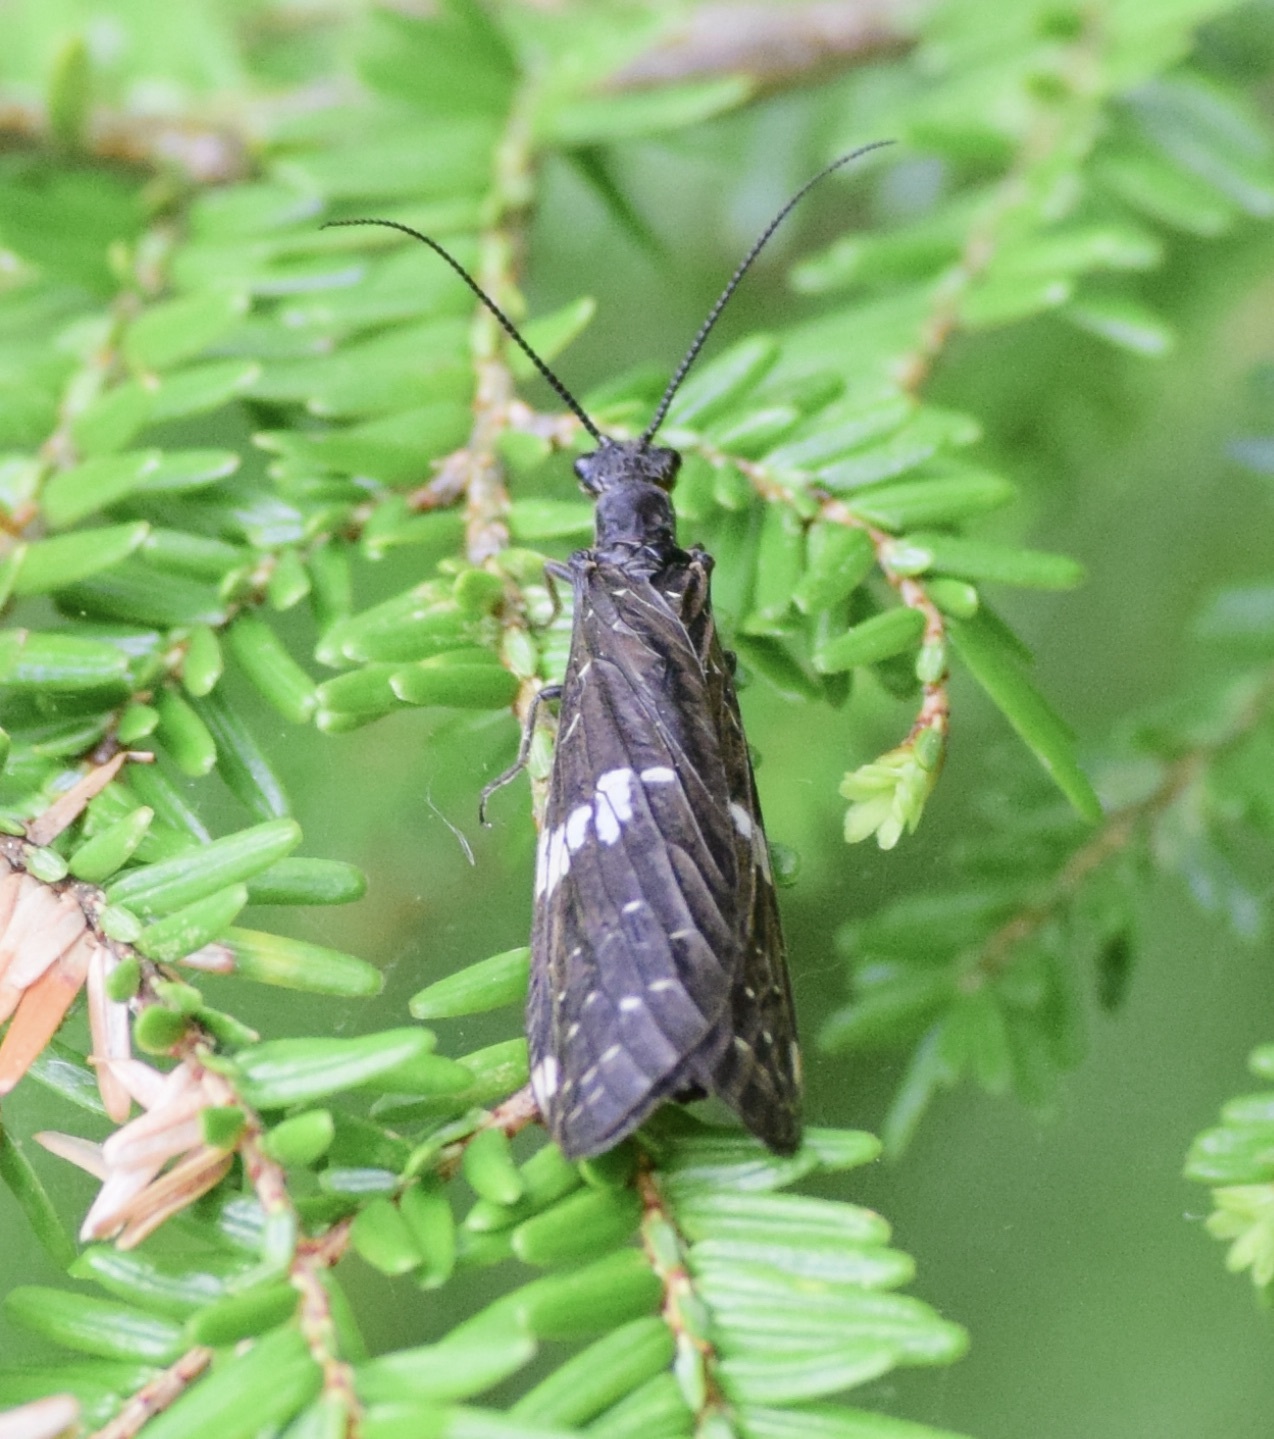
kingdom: Animalia
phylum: Arthropoda
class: Insecta
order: Megaloptera
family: Corydalidae
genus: Nigronia
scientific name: Nigronia serricornis
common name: Serrate dark fishfly
